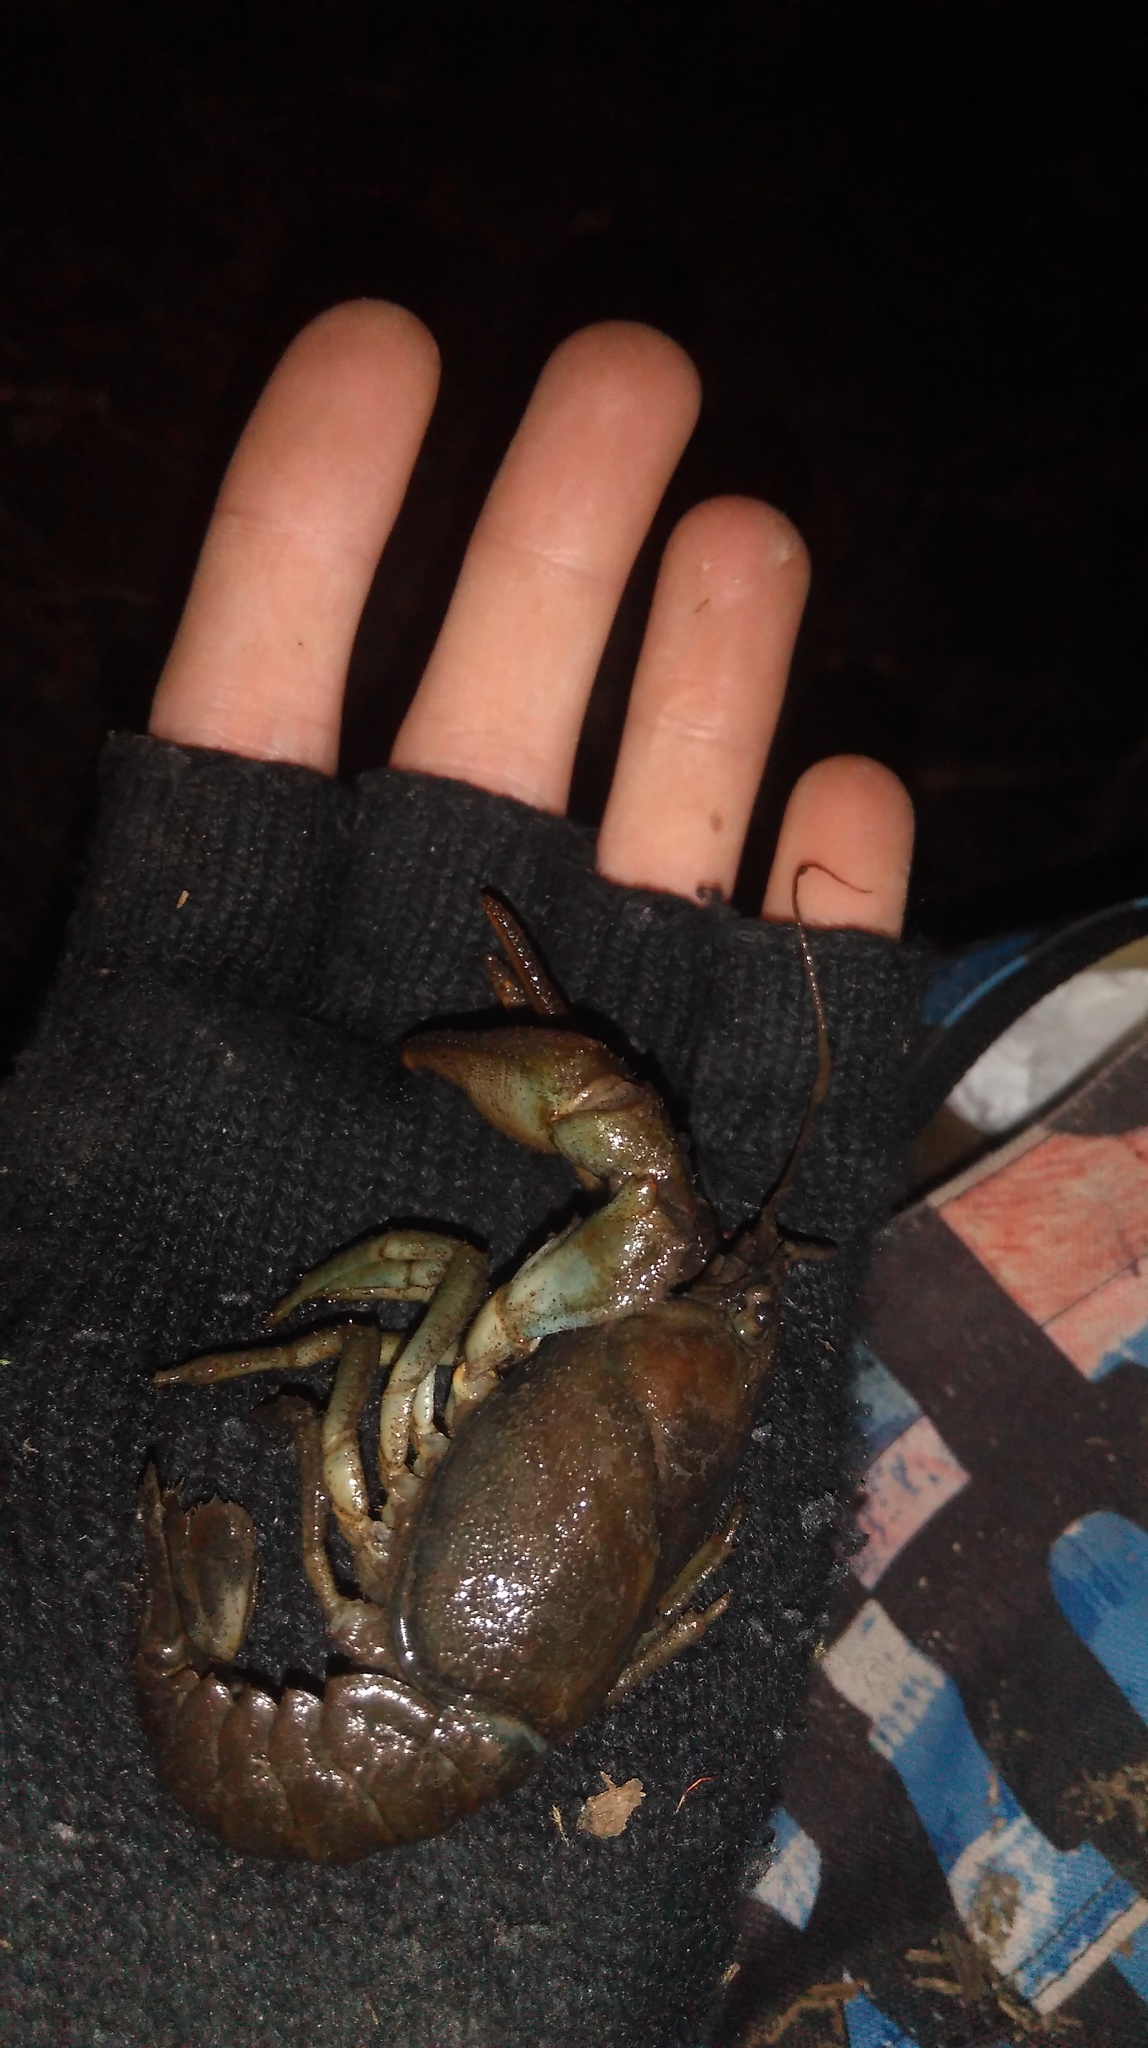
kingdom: Animalia
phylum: Arthropoda
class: Malacostraca
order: Decapoda
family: Astacidae
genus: Austropotamobius
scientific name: Austropotamobius pallipes
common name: White-clawed crayfish
